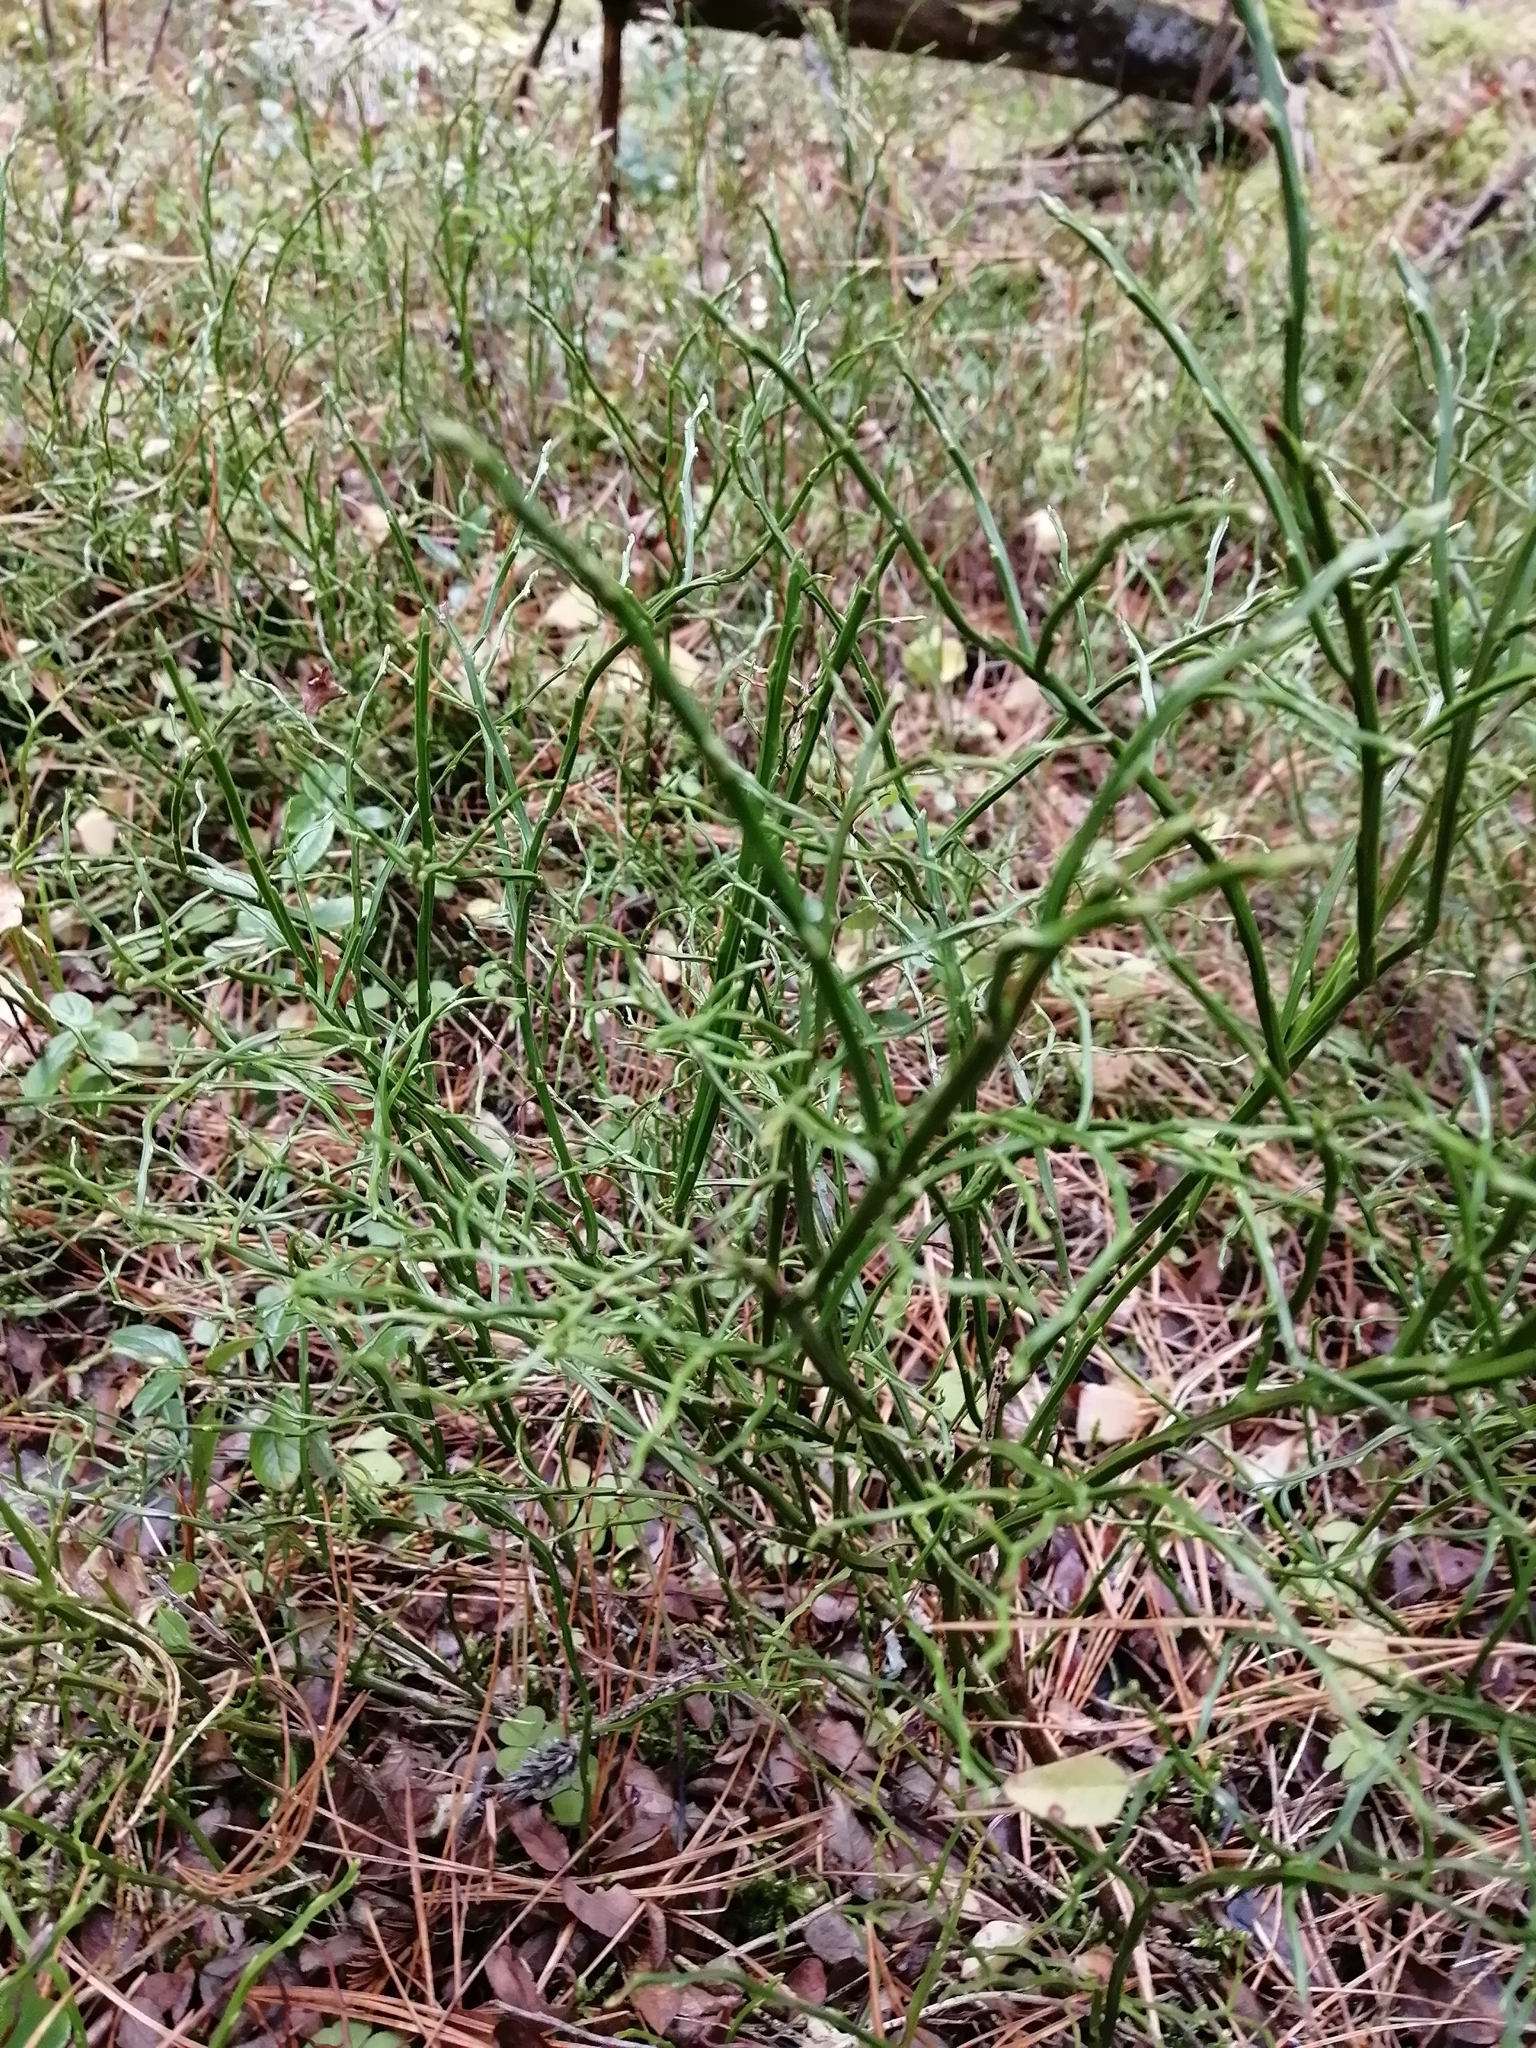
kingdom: Plantae
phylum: Tracheophyta
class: Magnoliopsida
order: Ericales
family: Ericaceae
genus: Vaccinium
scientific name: Vaccinium myrtillus
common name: Bilberry
